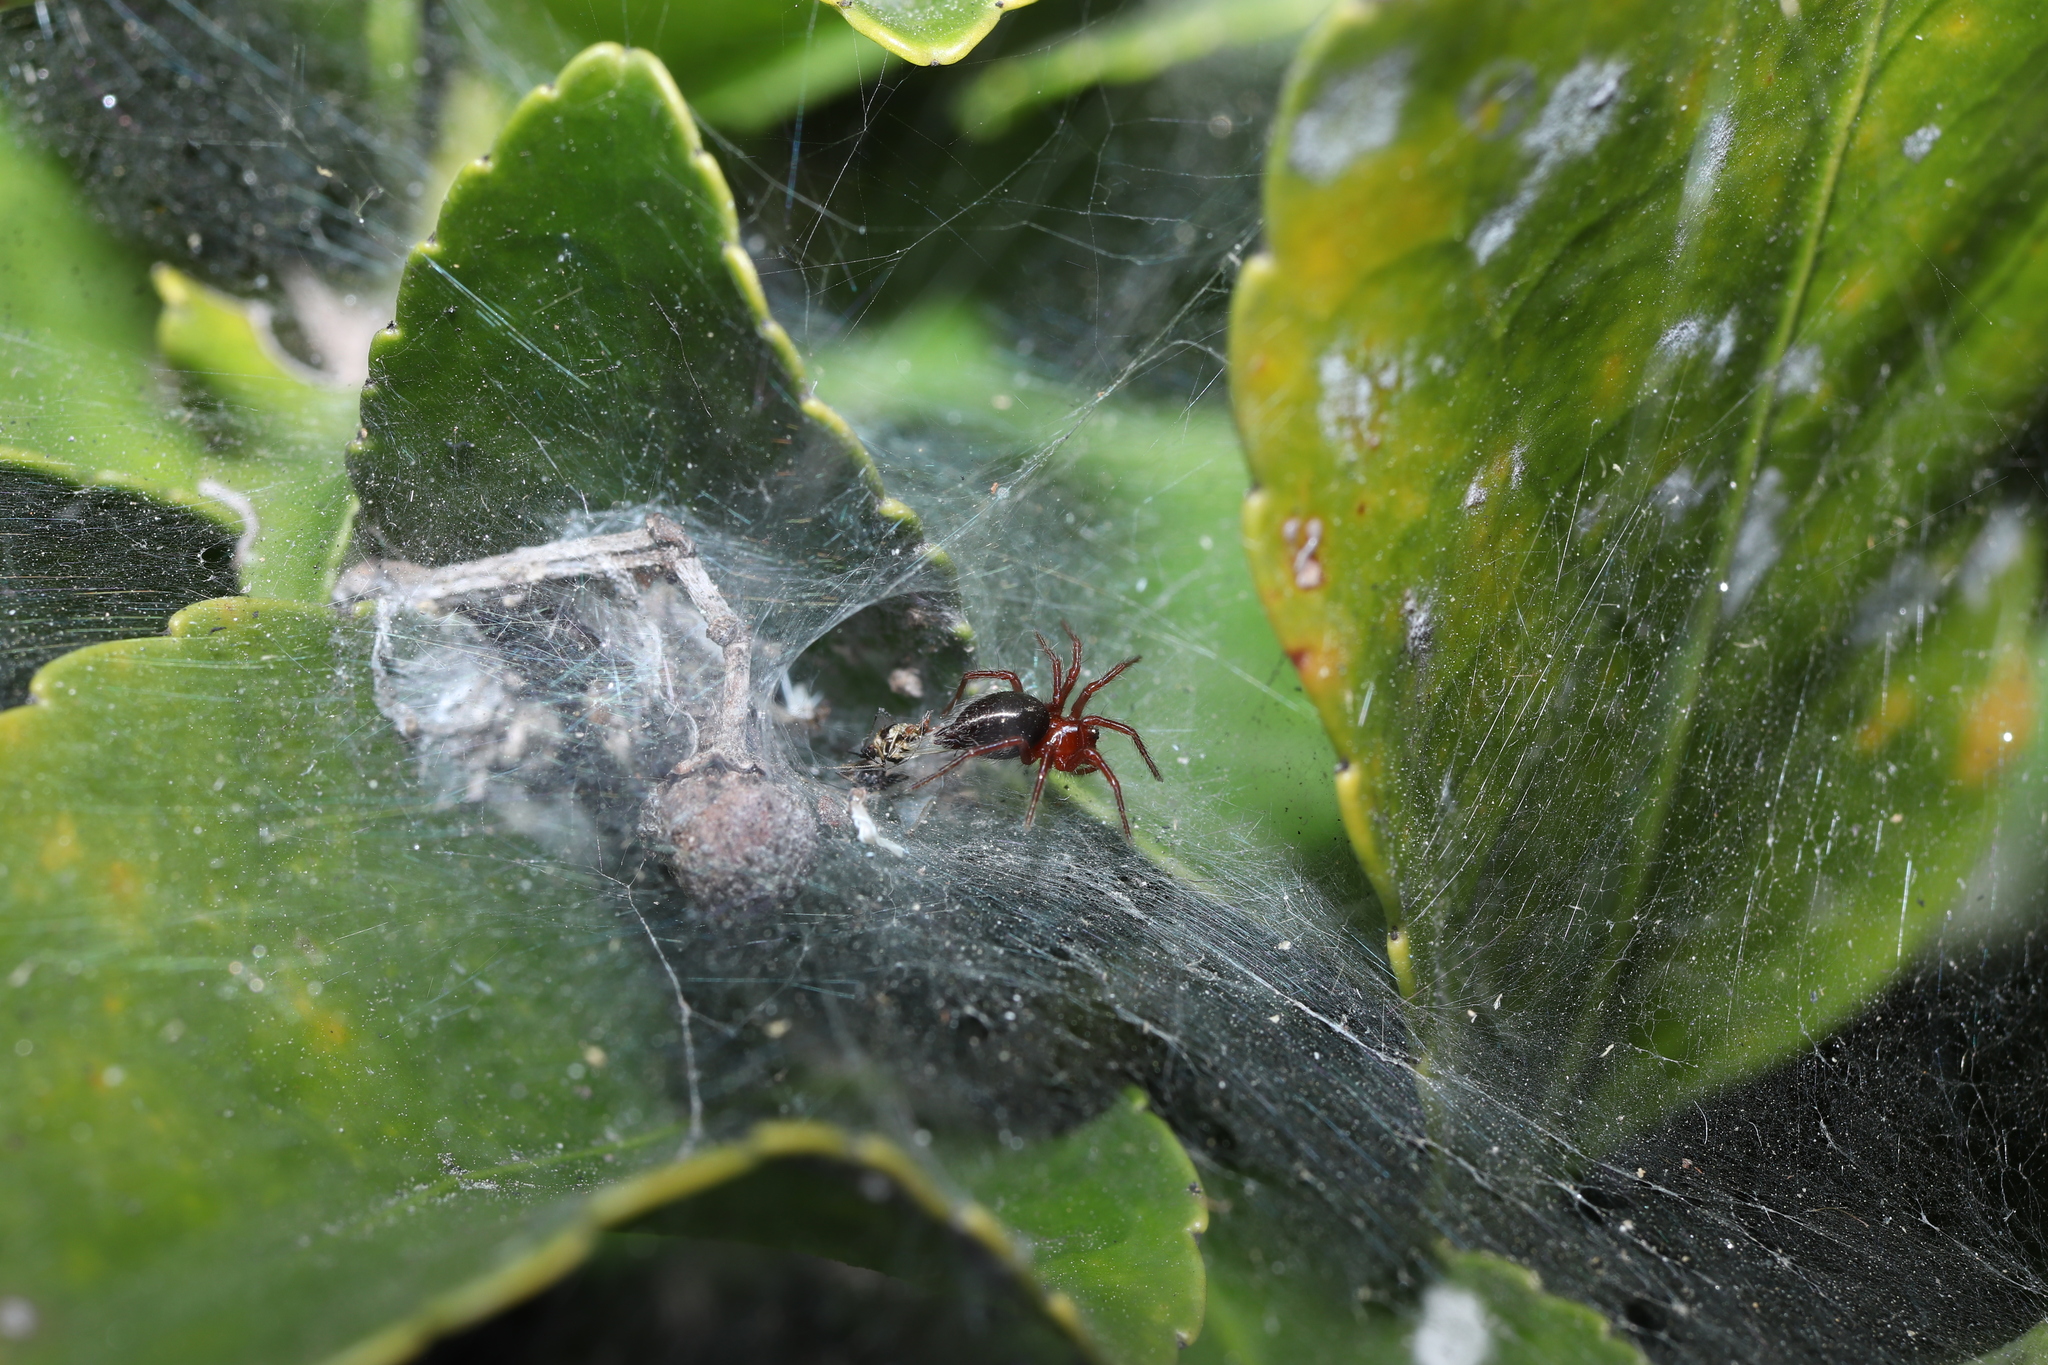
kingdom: Animalia
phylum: Arthropoda
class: Arachnida
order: Araneae
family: Agelenidae
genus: Agelena
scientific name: Agelena silvatica
